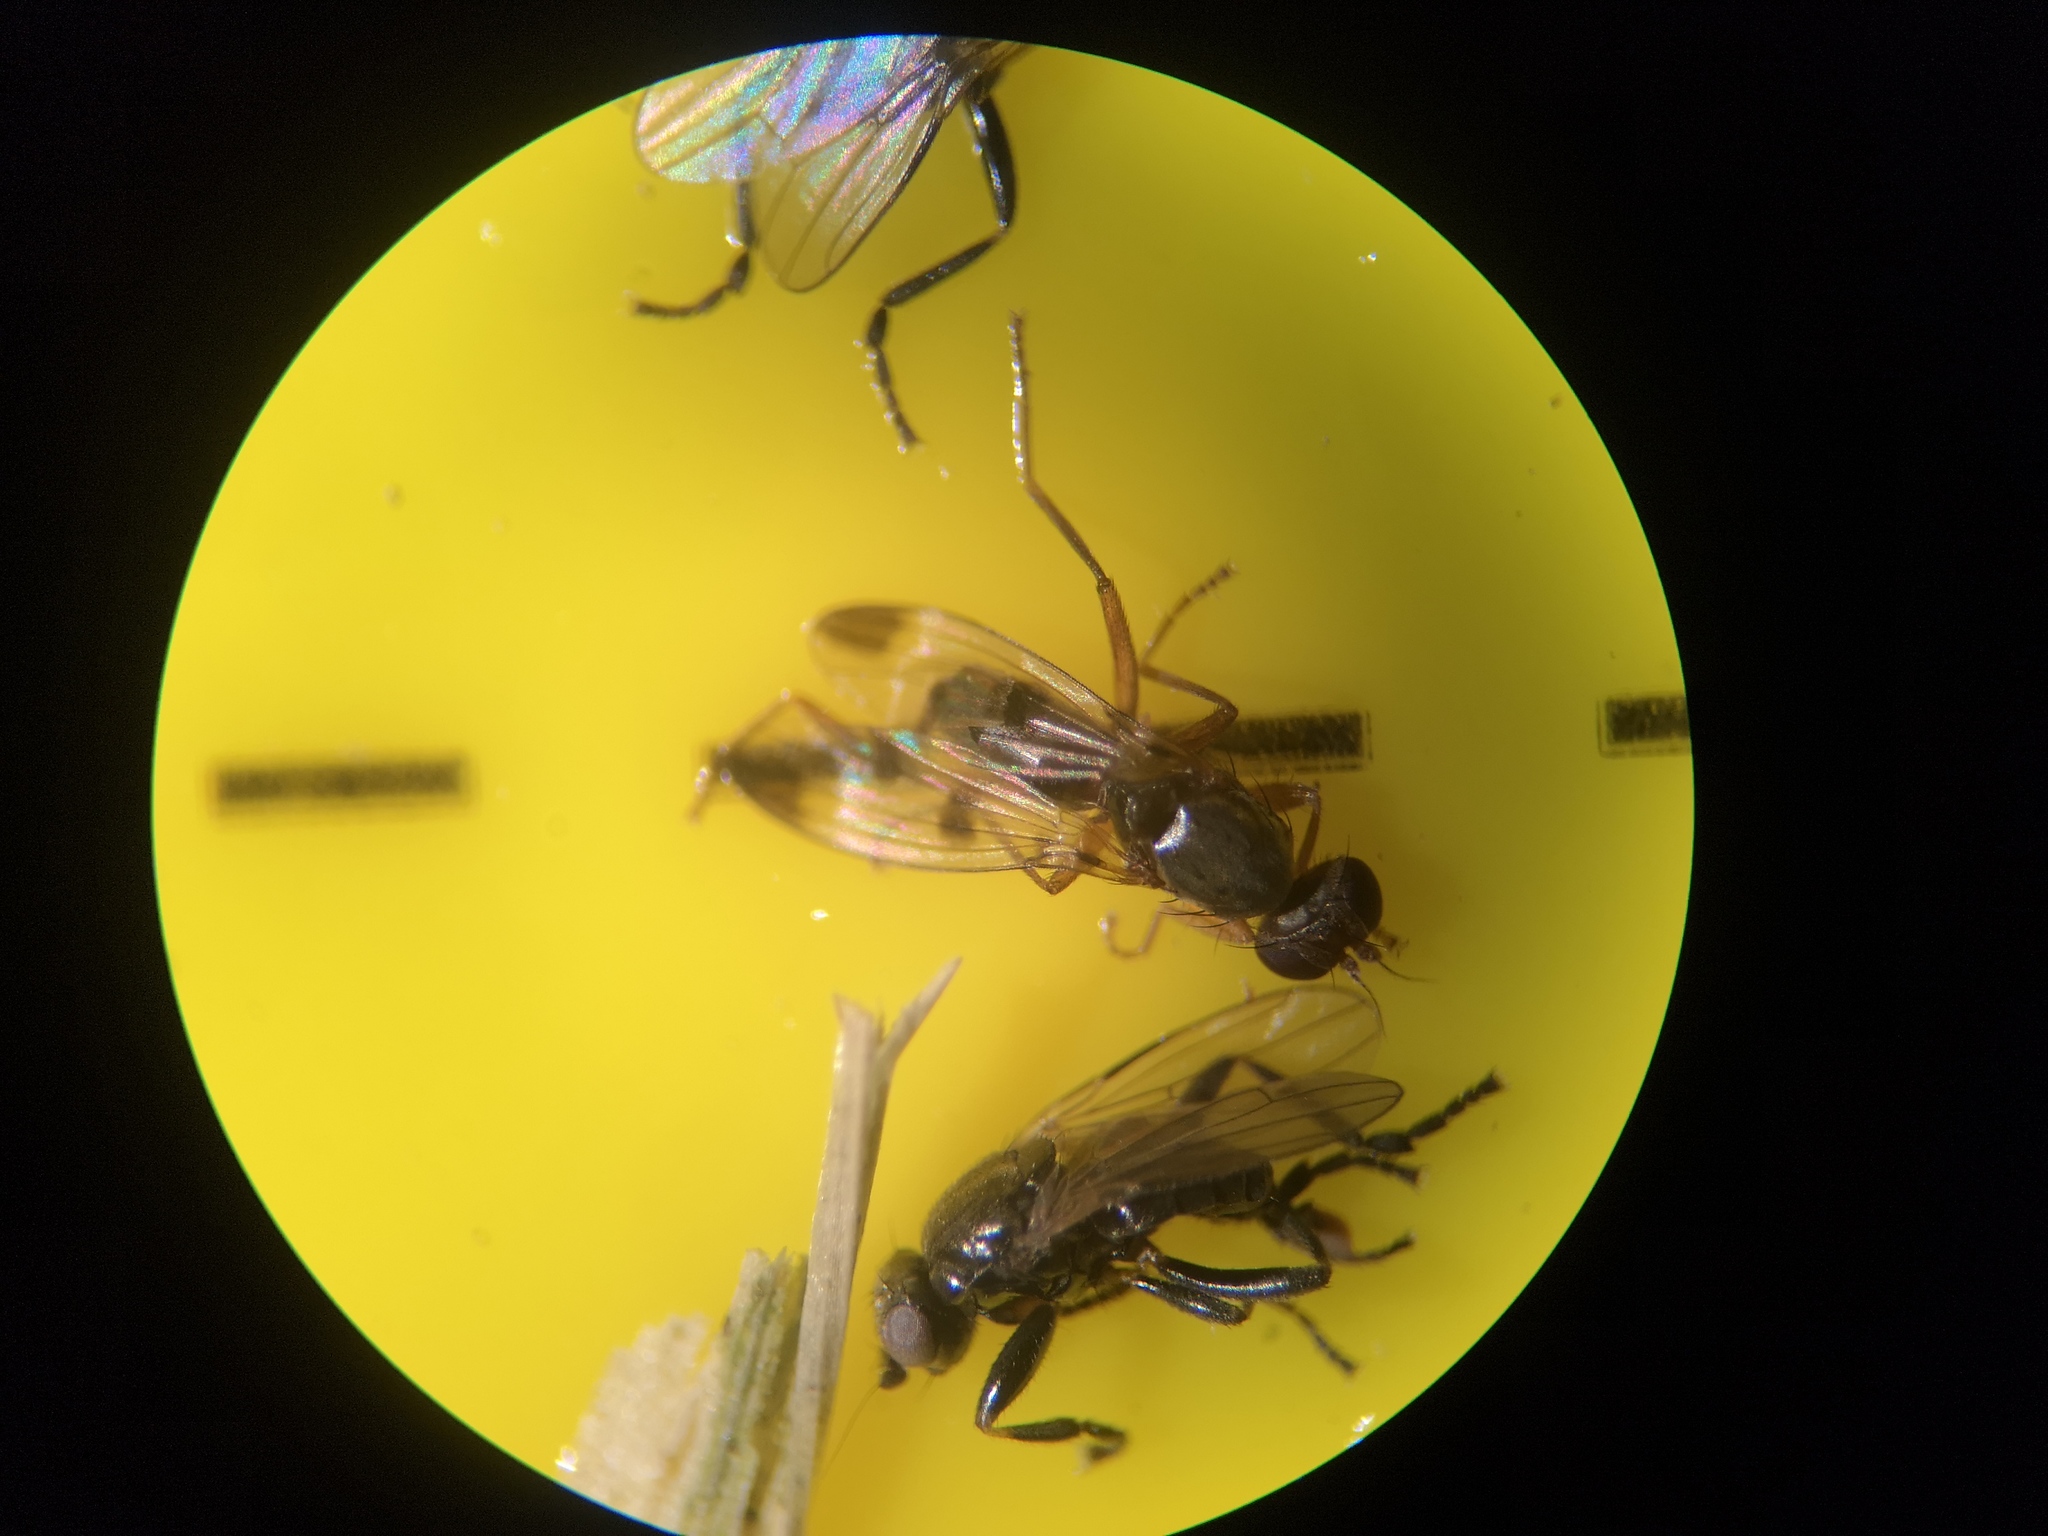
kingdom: Animalia
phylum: Arthropoda
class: Insecta
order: Diptera
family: Opomyzidae
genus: Geomyza
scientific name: Geomyza tripunctata
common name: Cereal fly
